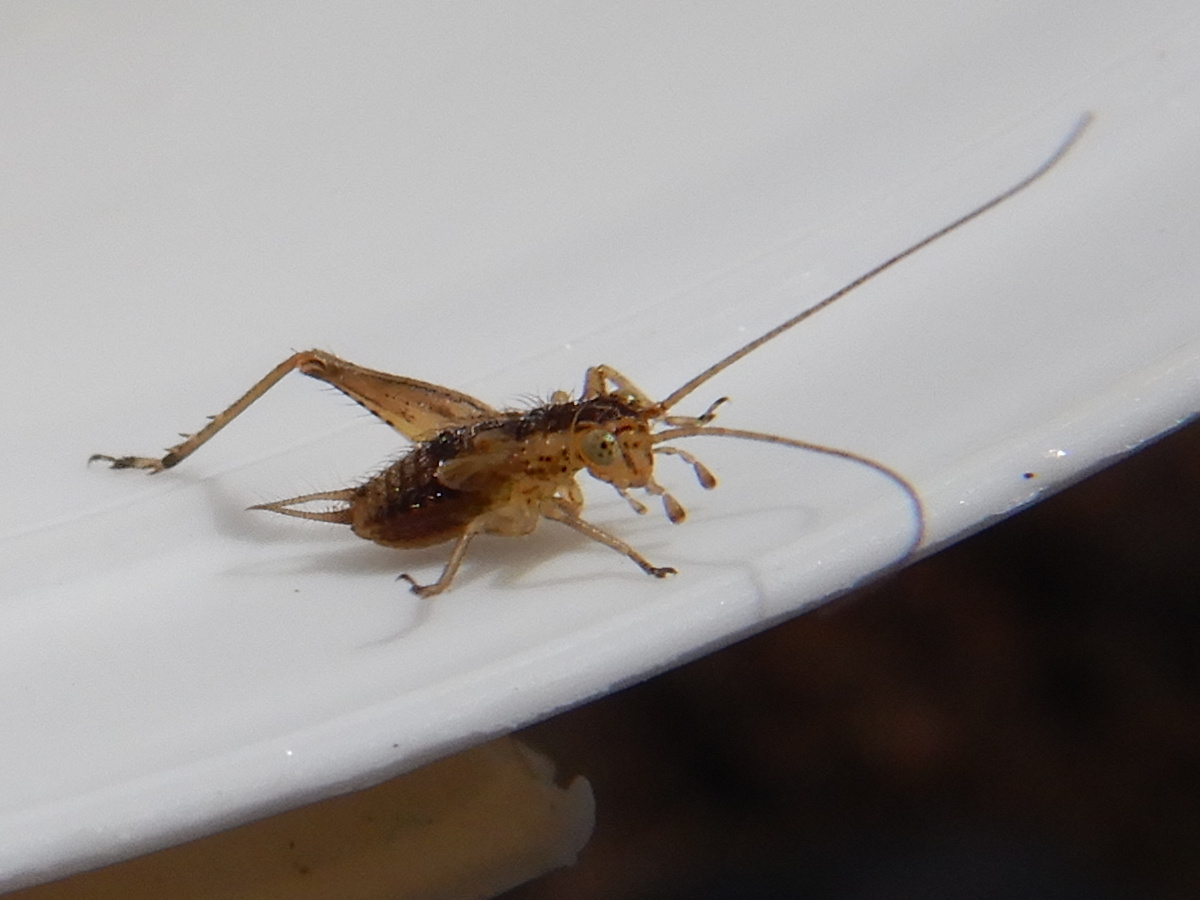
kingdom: Animalia
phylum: Arthropoda
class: Insecta
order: Orthoptera
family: Trigonidiidae
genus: Metioche
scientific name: Metioche maorica
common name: New zealand trig
